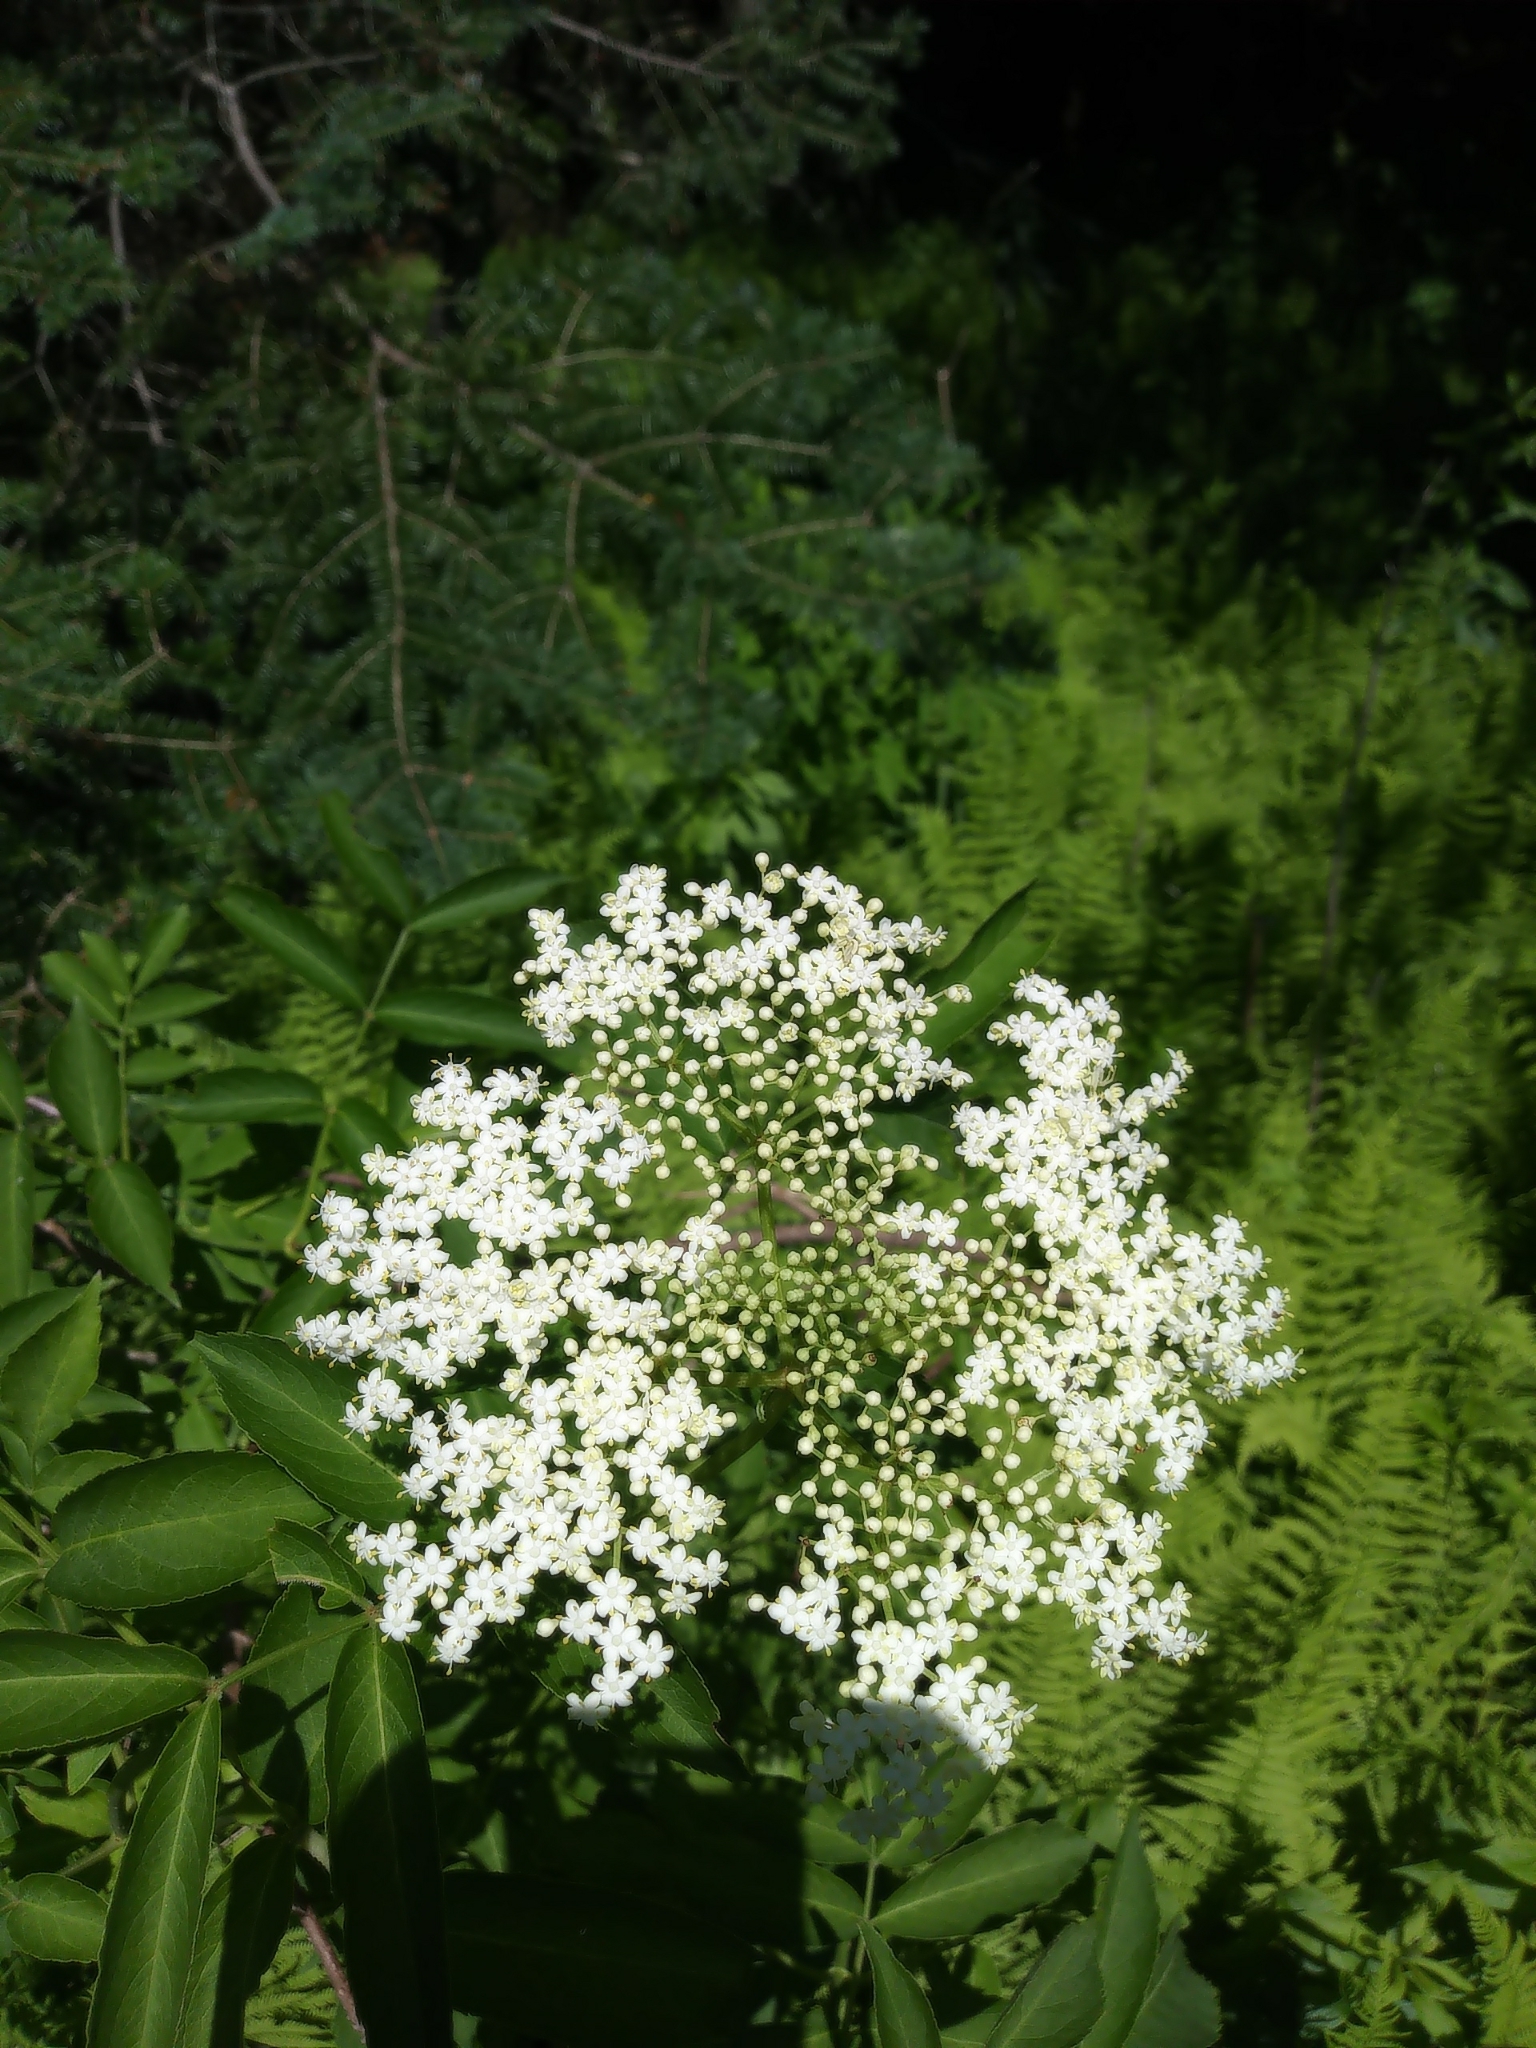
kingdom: Plantae
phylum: Tracheophyta
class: Magnoliopsida
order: Dipsacales
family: Viburnaceae
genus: Sambucus
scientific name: Sambucus canadensis
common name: American elder
